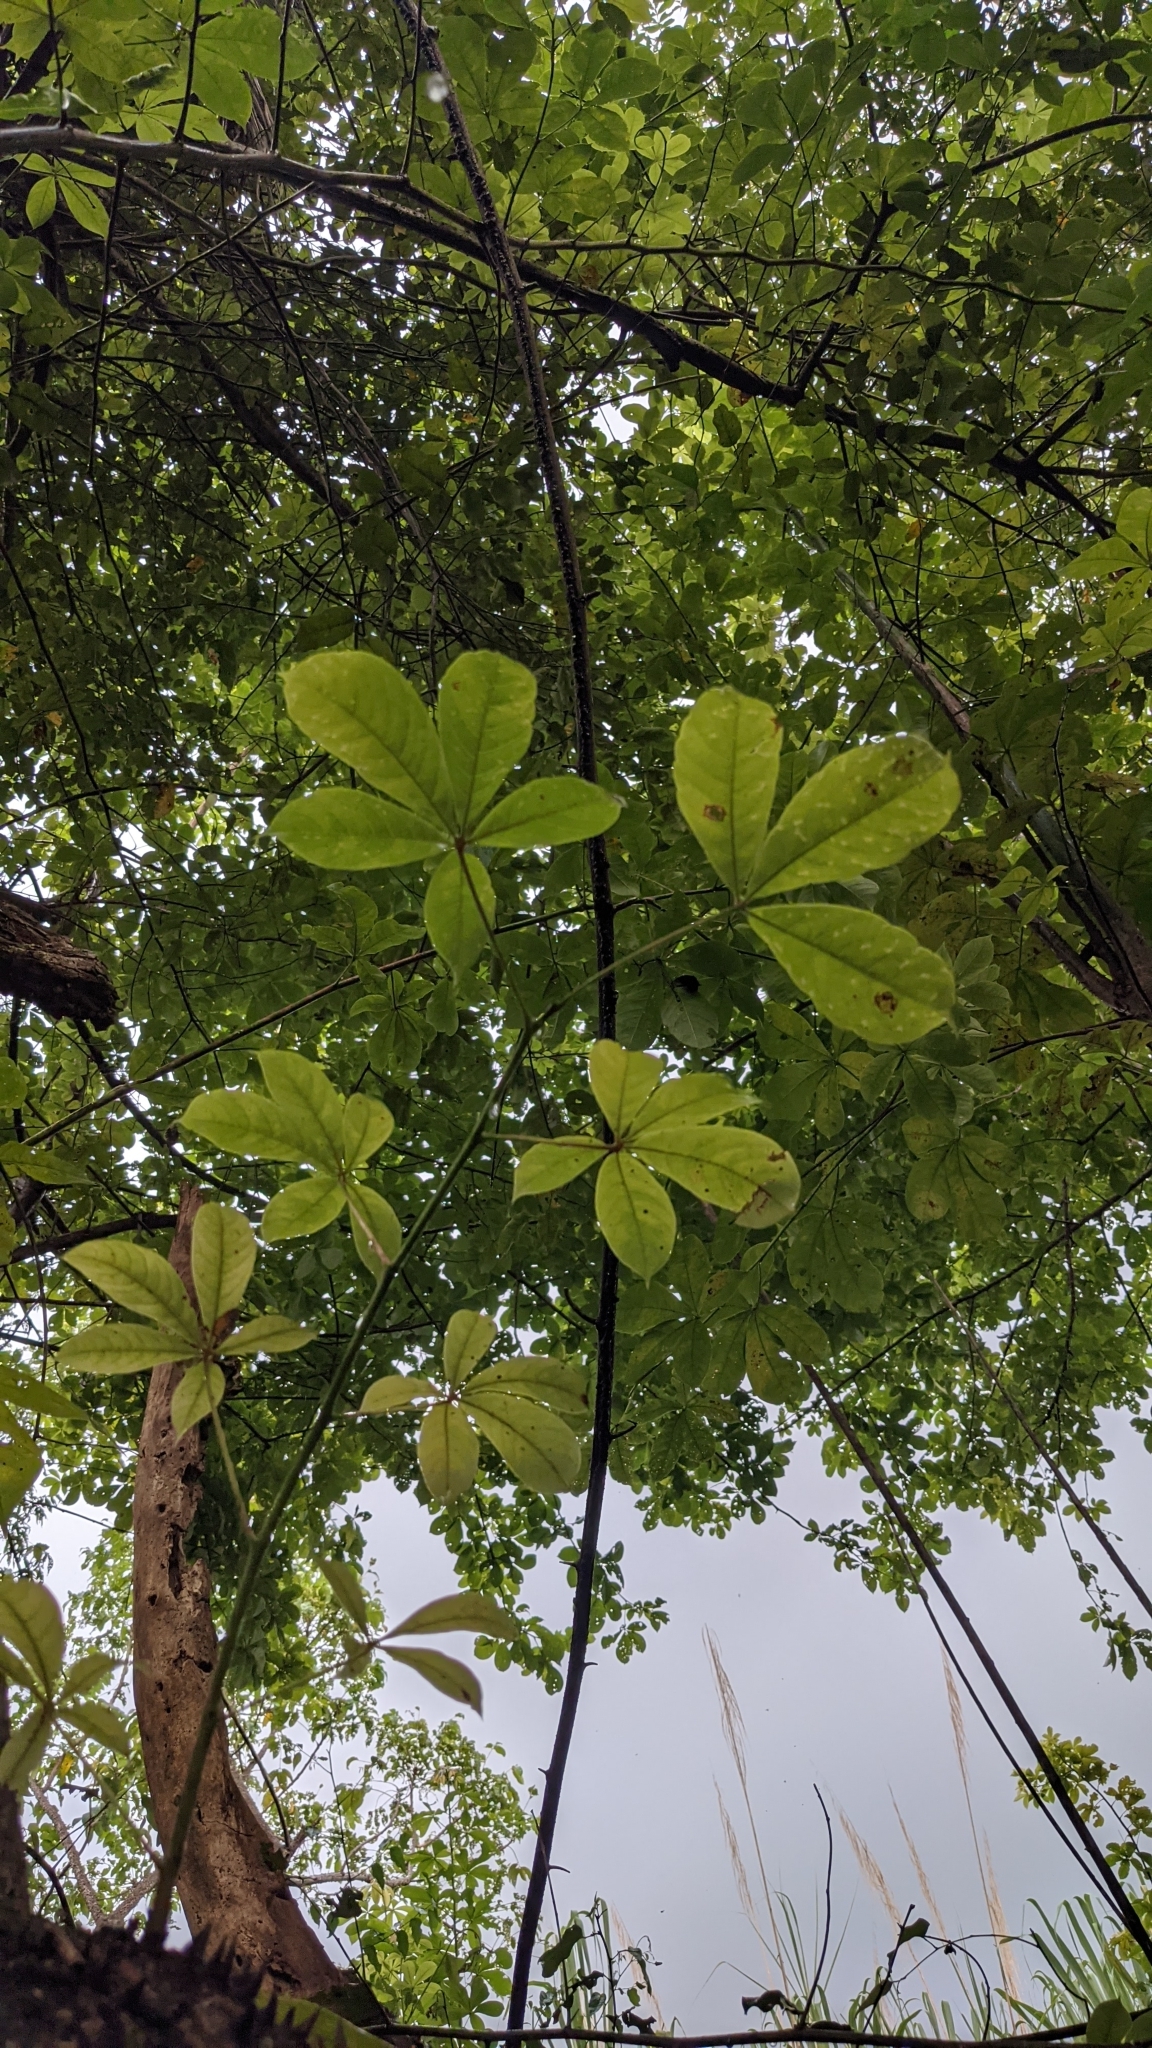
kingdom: Plantae
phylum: Tracheophyta
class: Magnoliopsida
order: Malvales
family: Malvaceae
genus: Pochota
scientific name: Pochota fendleri
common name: Chestnut
